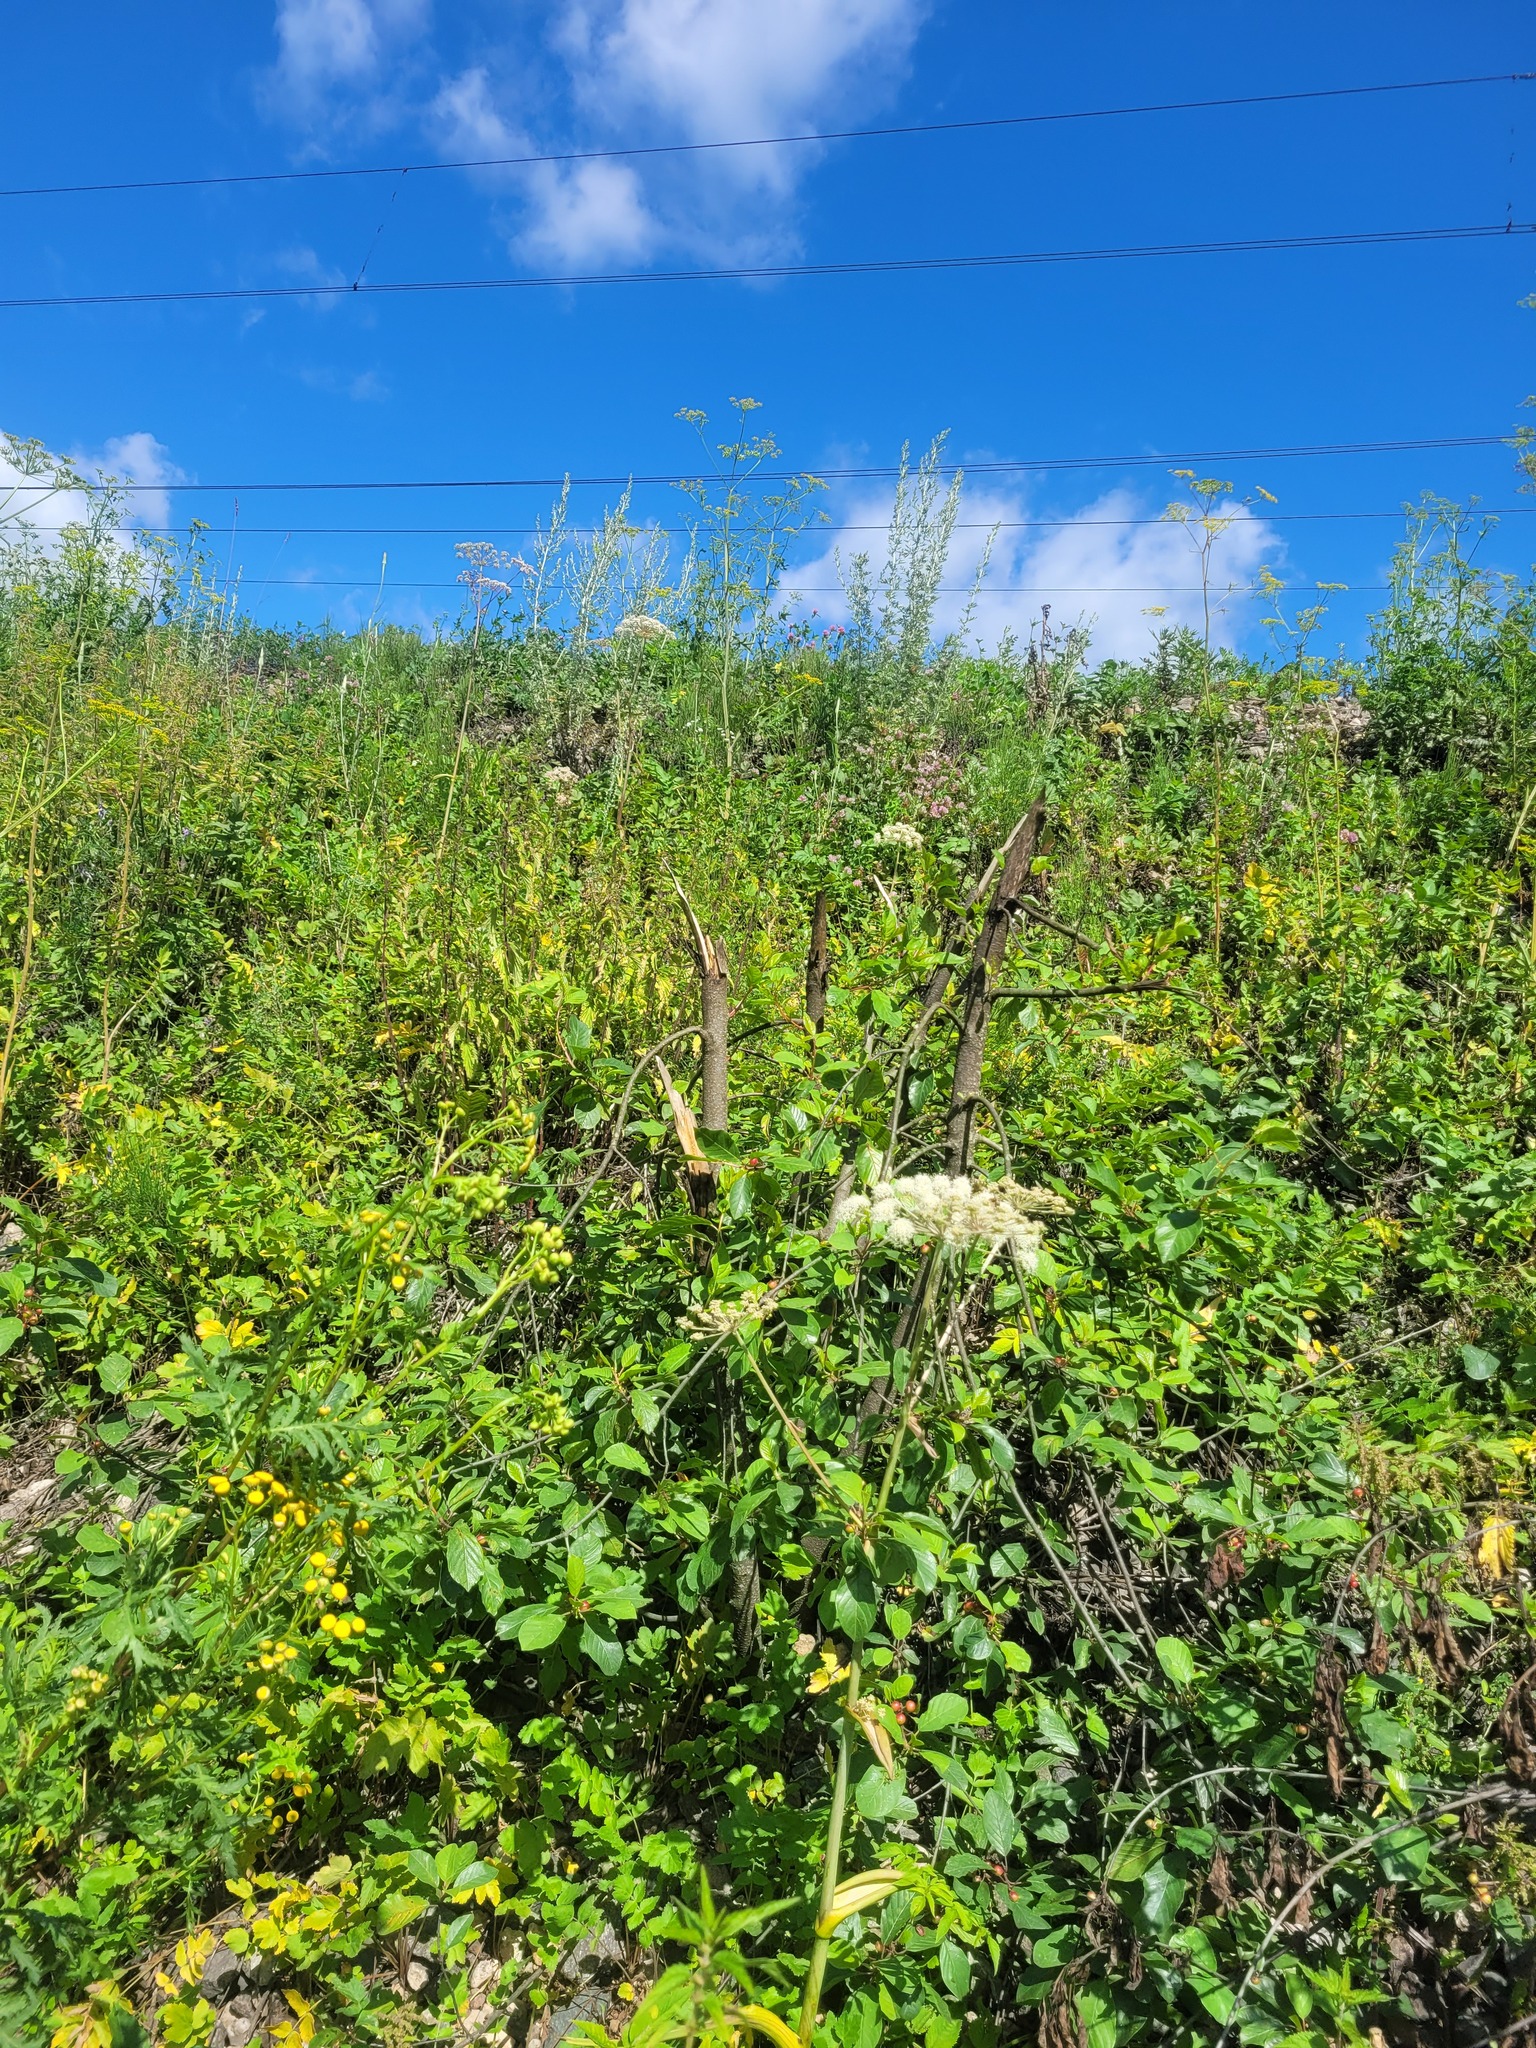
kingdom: Plantae
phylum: Tracheophyta
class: Magnoliopsida
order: Rosales
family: Rhamnaceae
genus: Frangula
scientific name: Frangula alnus
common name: Alder buckthorn
